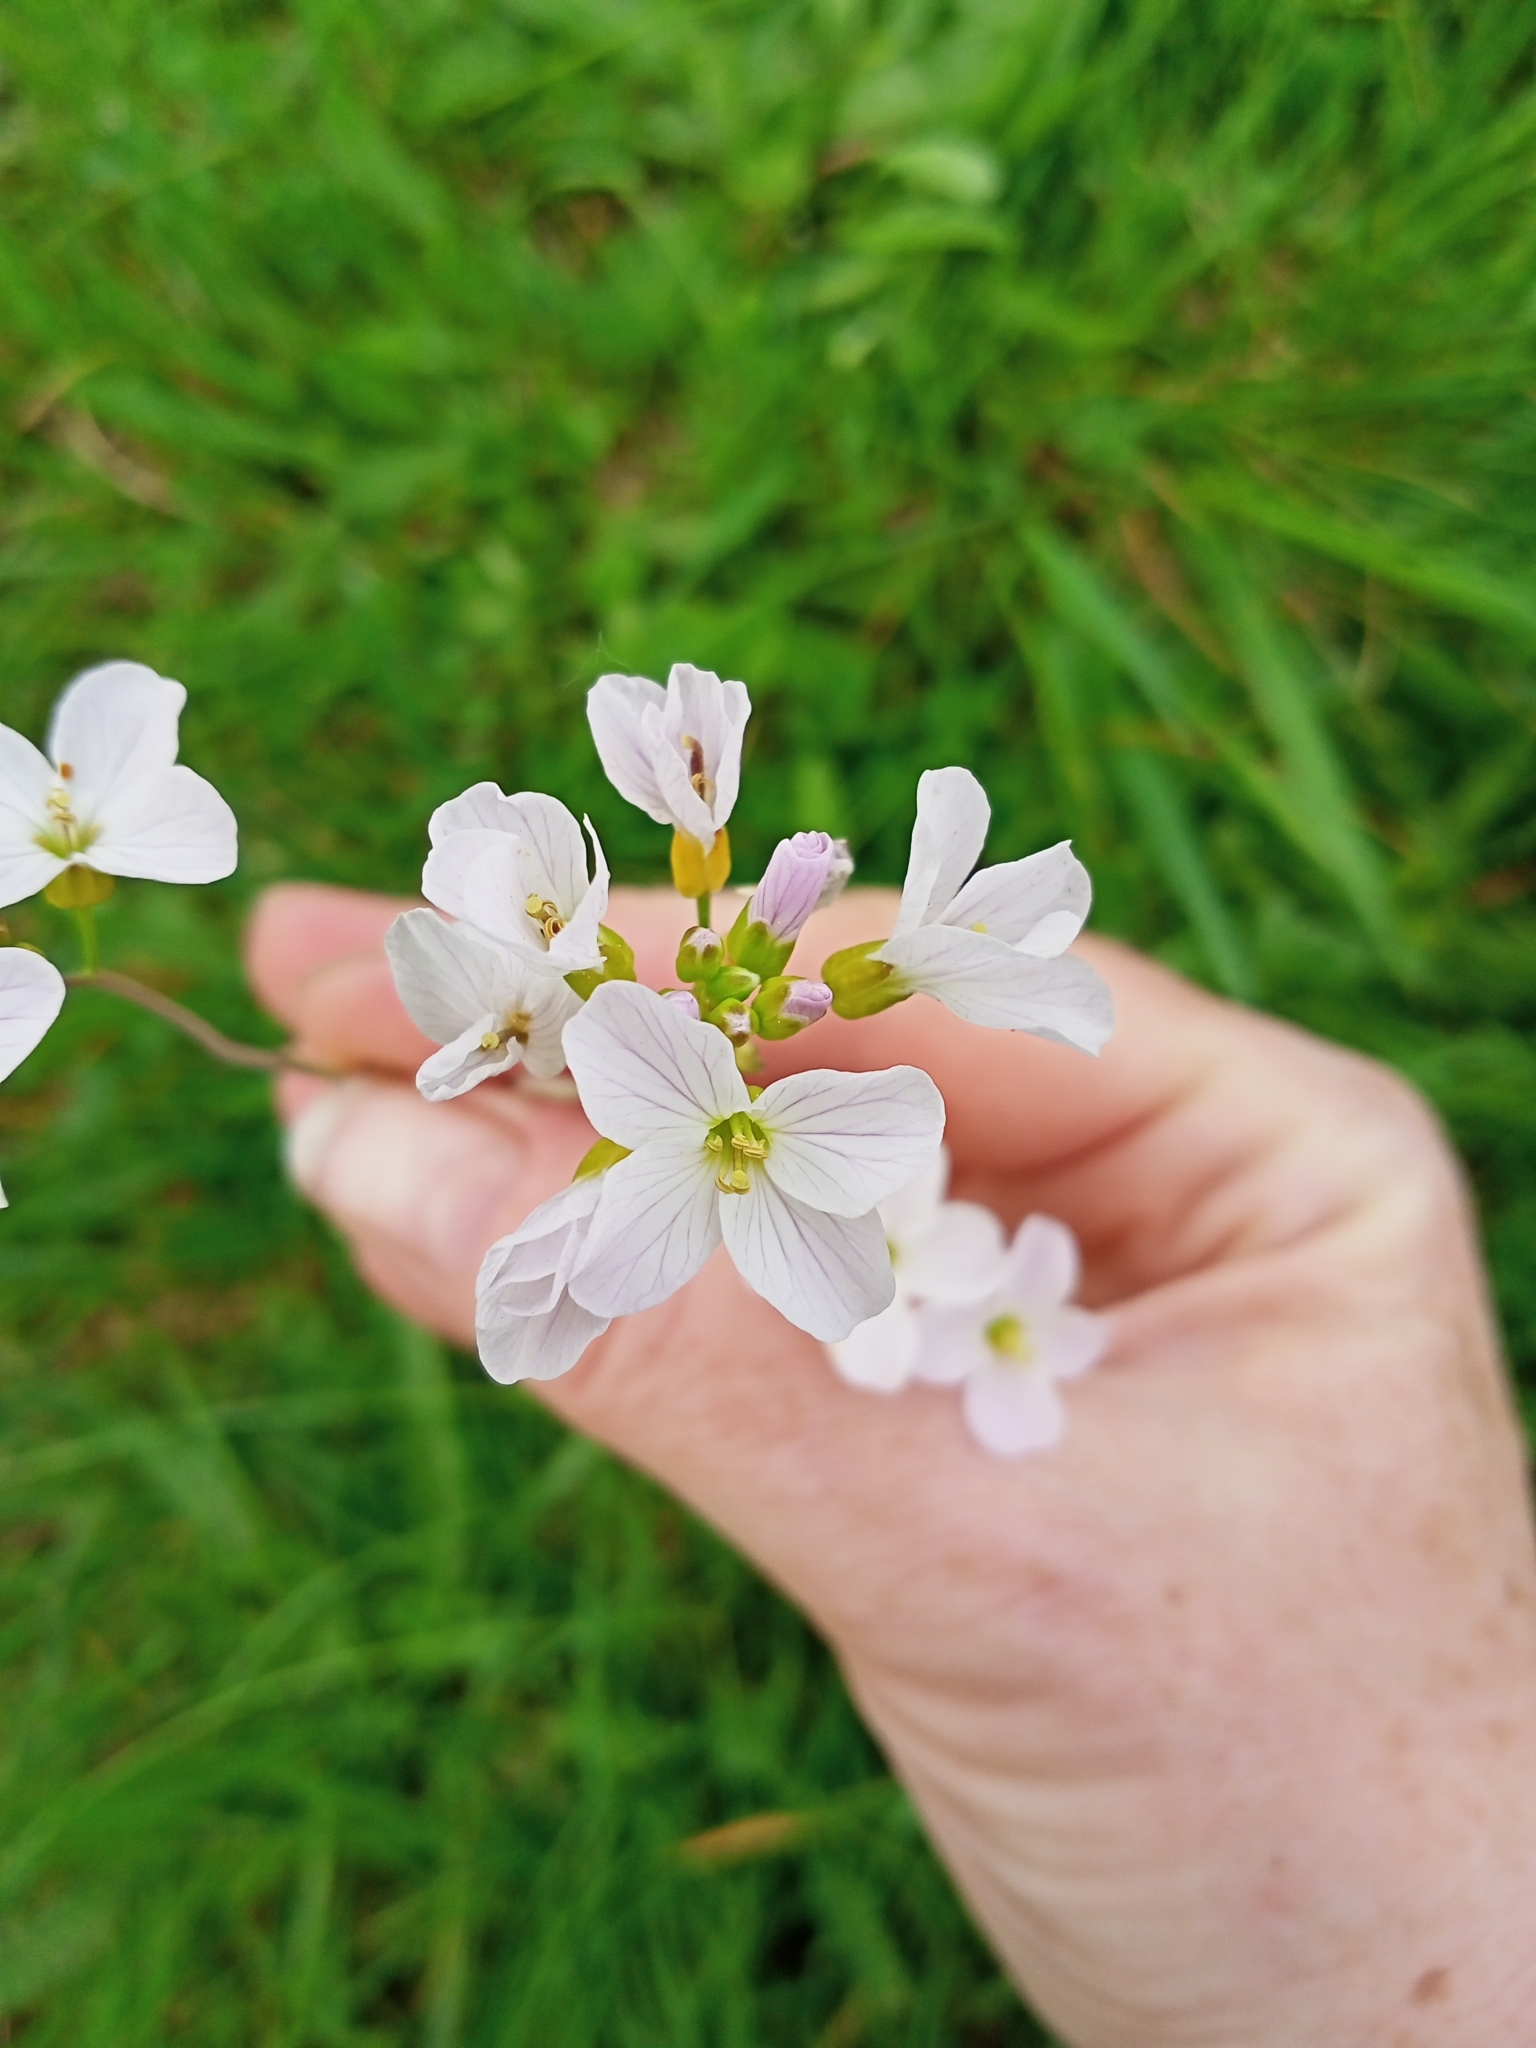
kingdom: Plantae
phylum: Tracheophyta
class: Magnoliopsida
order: Brassicales
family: Brassicaceae
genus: Cardamine
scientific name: Cardamine pratensis
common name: Cuckoo flower
